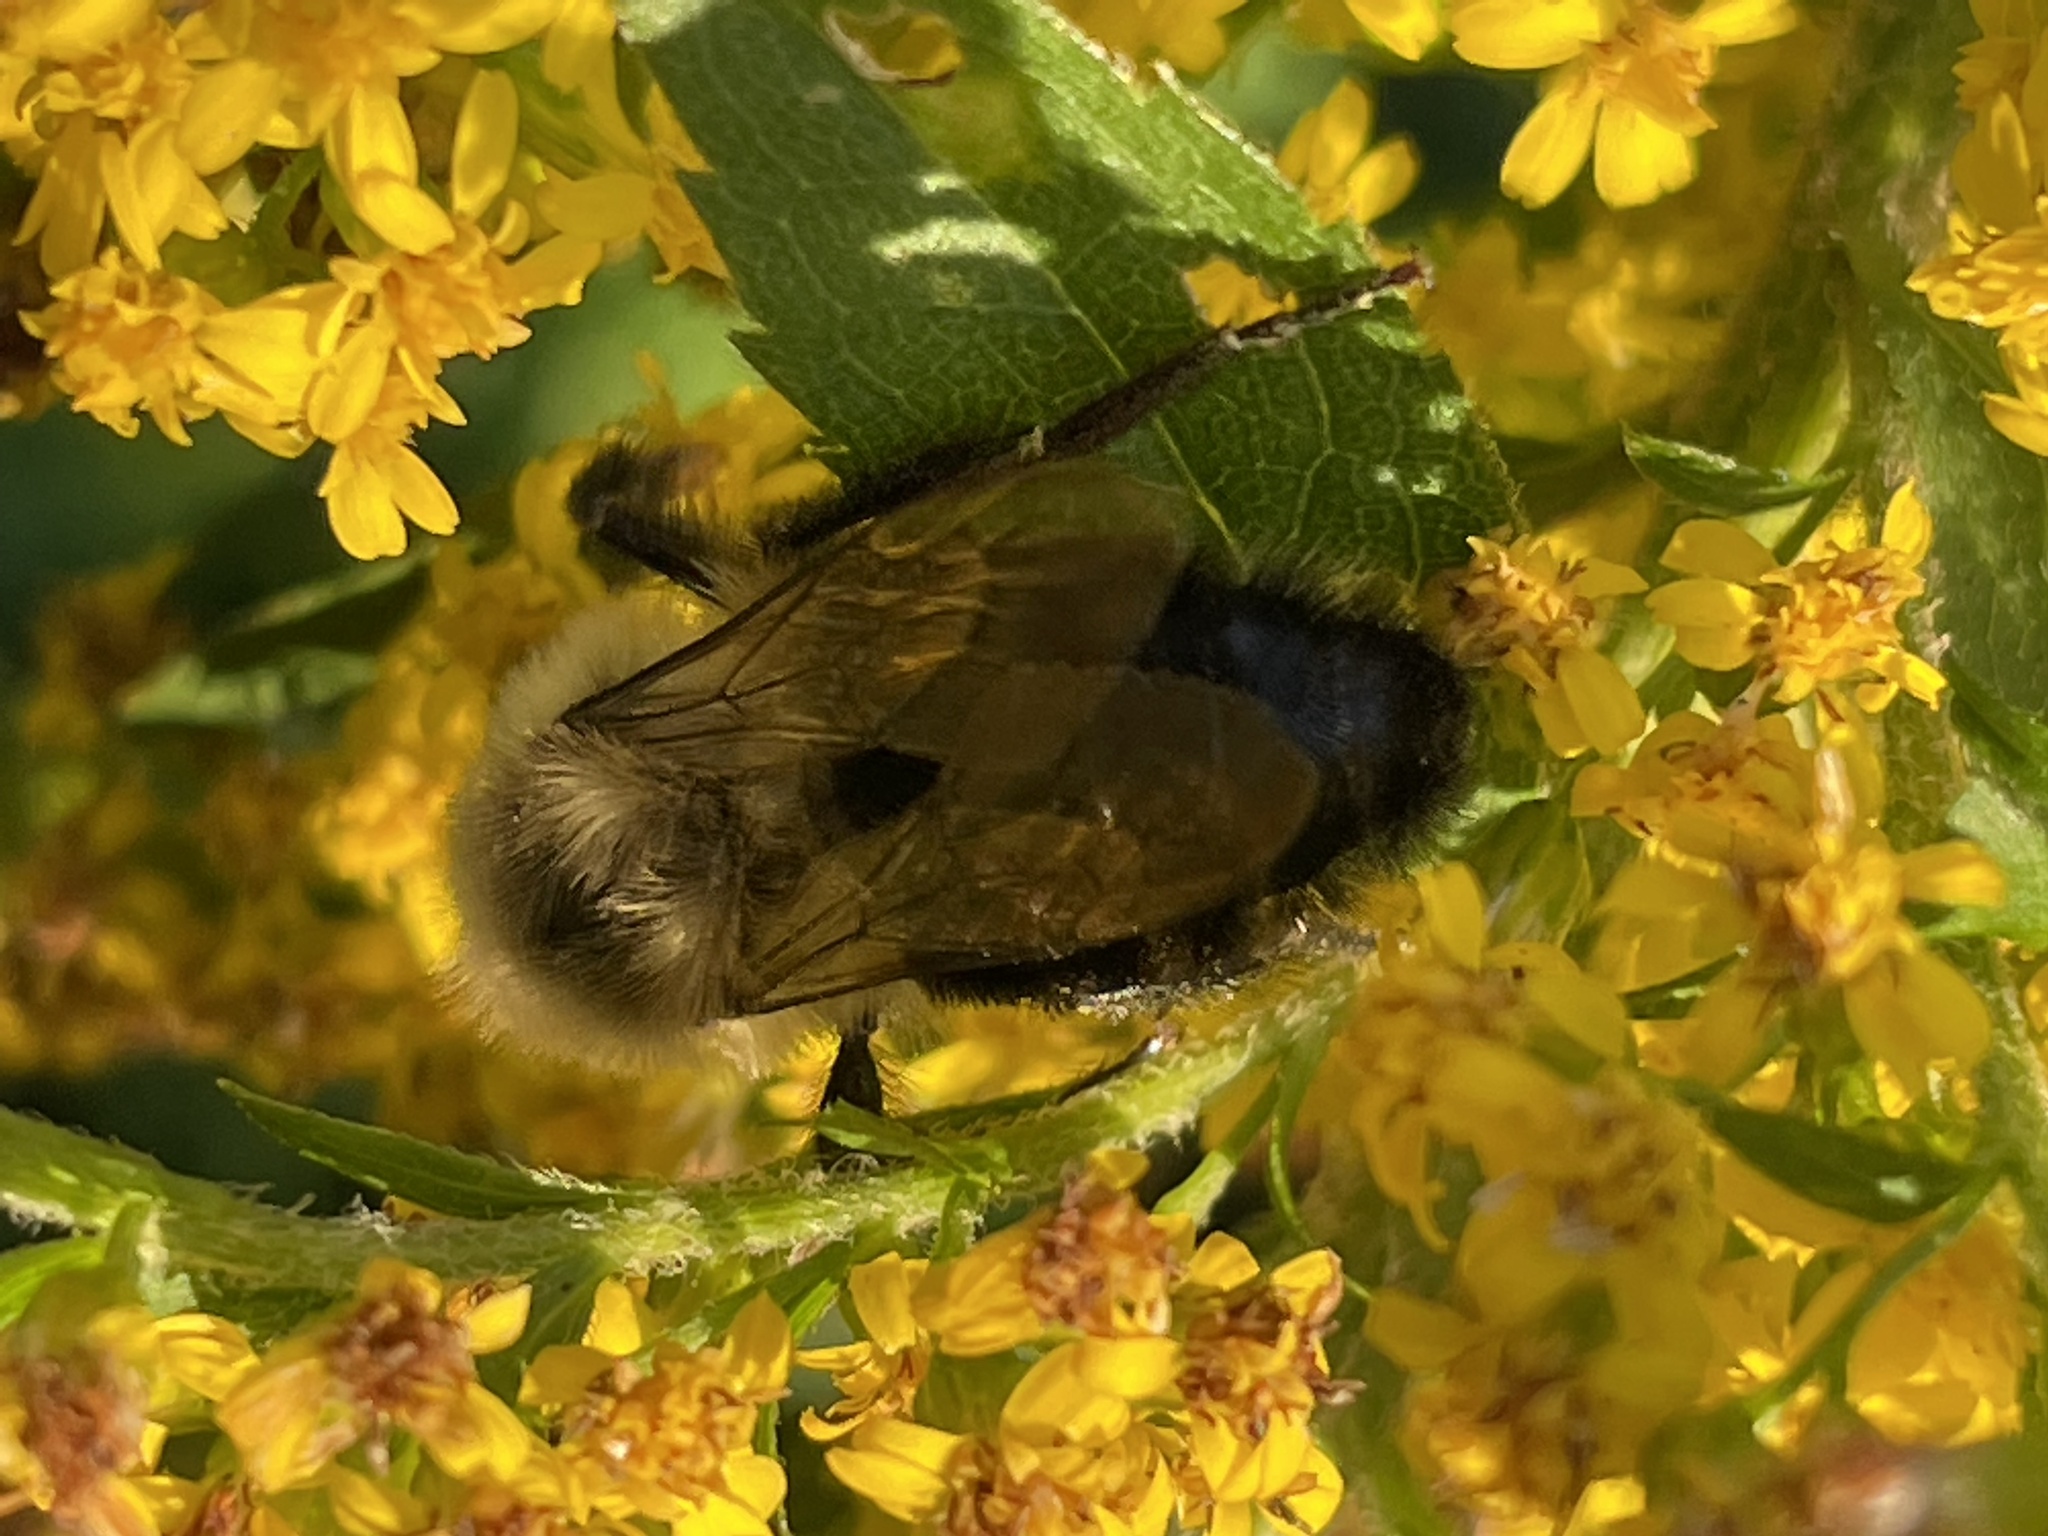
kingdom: Animalia
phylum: Arthropoda
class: Insecta
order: Hymenoptera
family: Apidae
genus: Bombus
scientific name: Bombus impatiens
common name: Common eastern bumble bee
